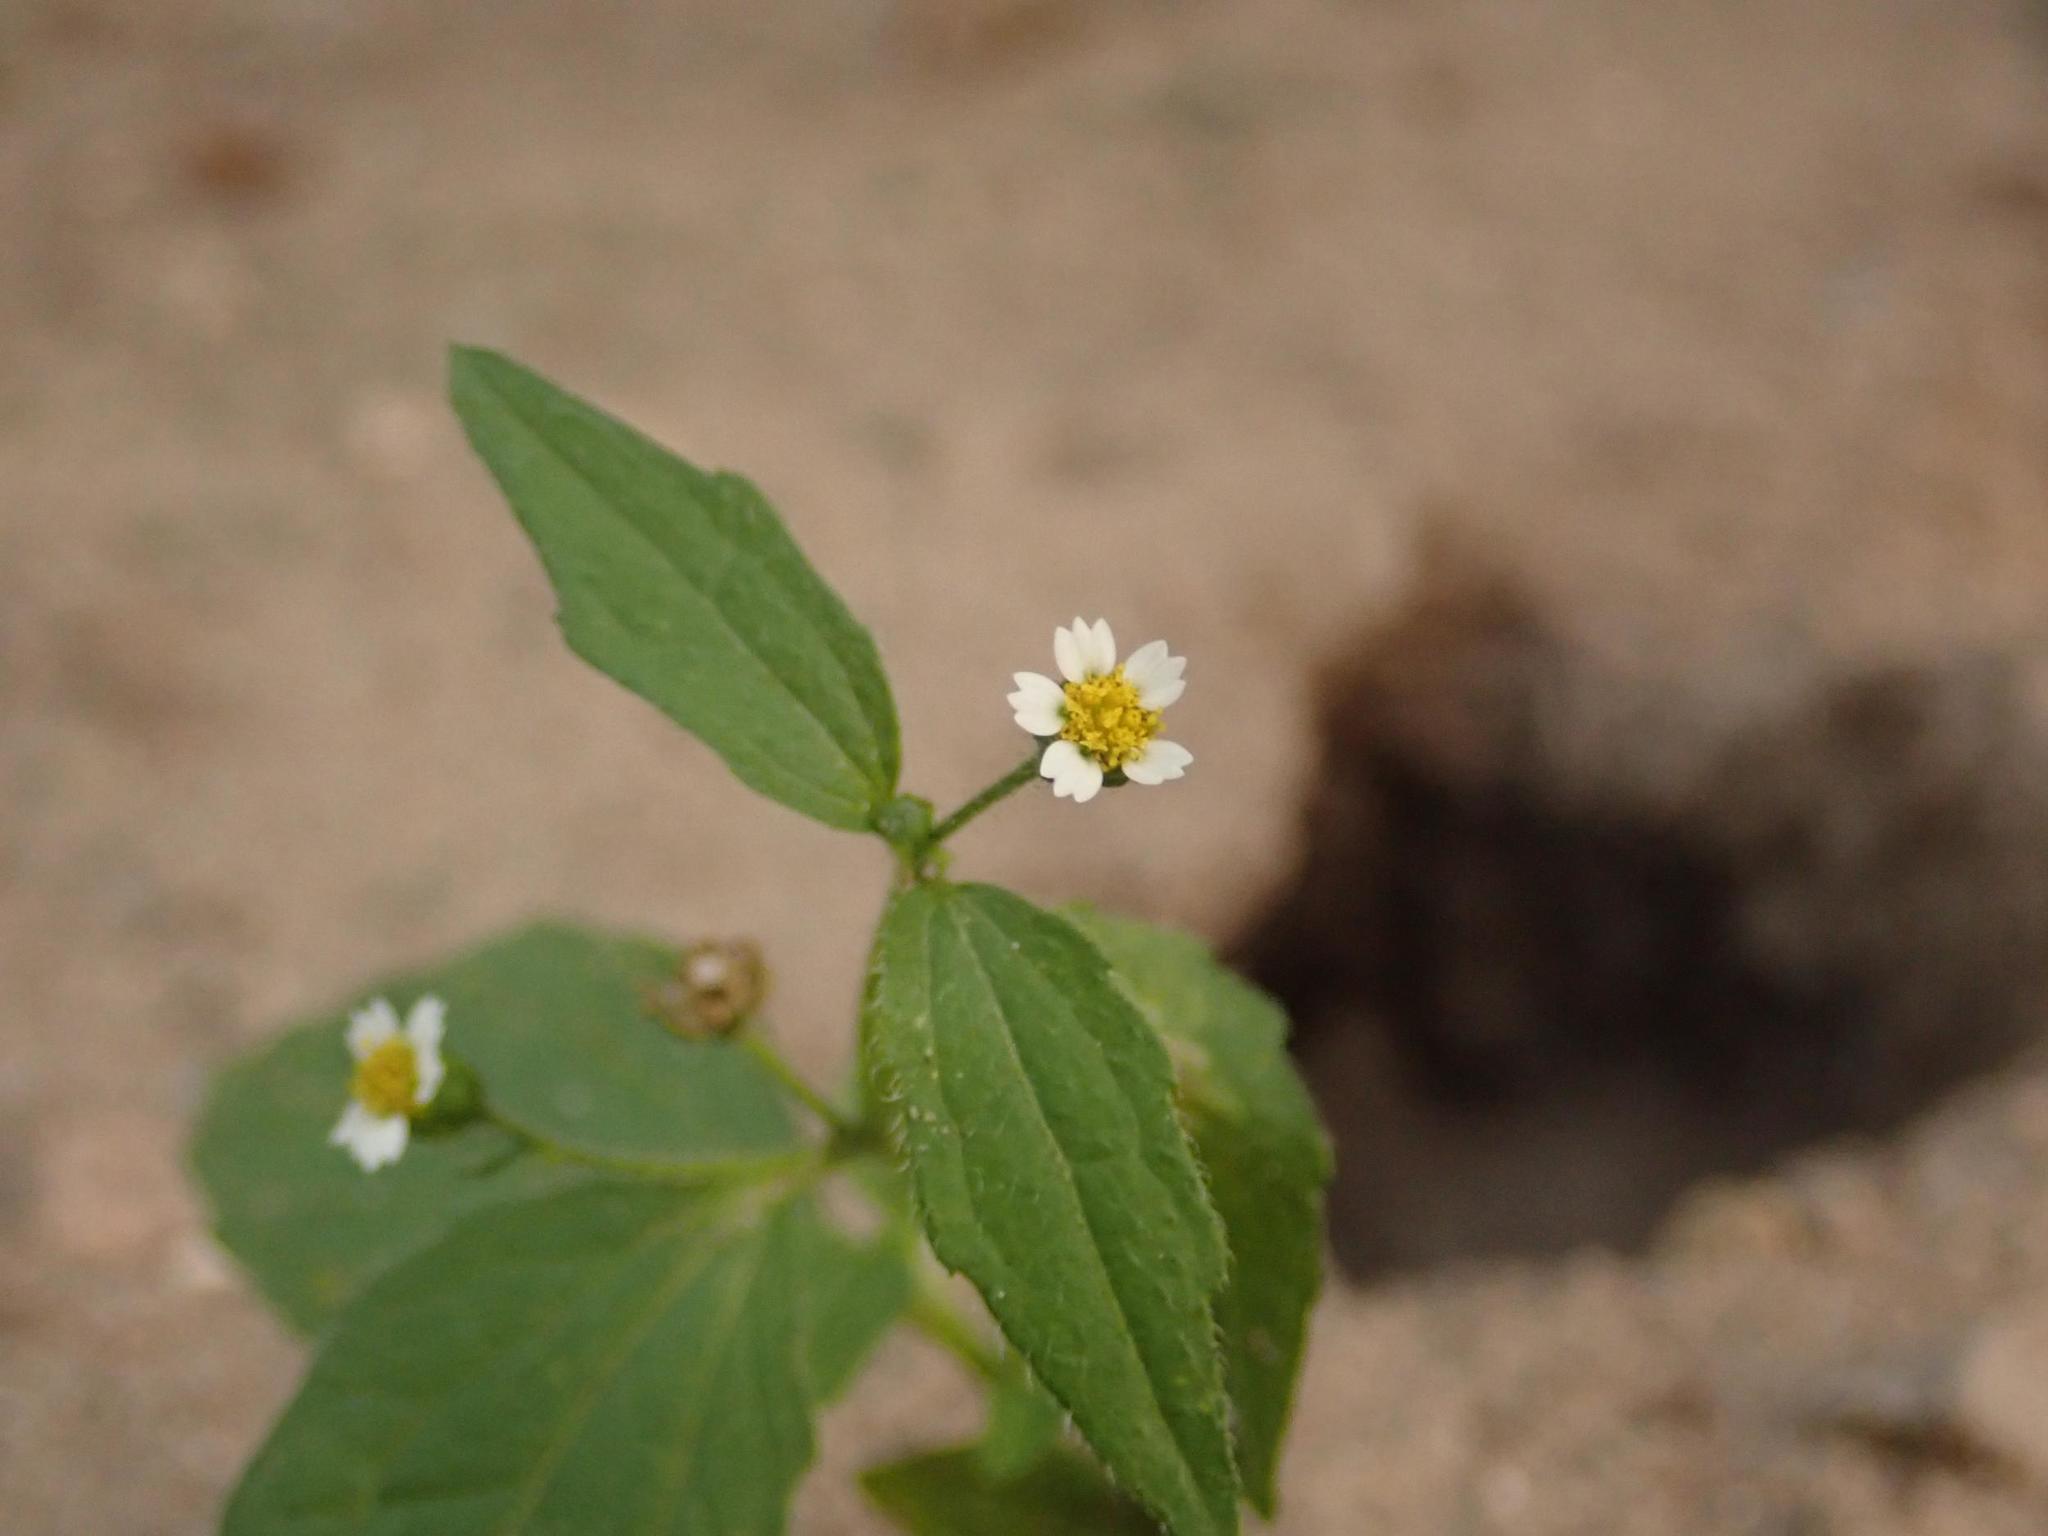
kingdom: Plantae
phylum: Tracheophyta
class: Magnoliopsida
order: Asterales
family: Asteraceae
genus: Galinsoga
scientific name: Galinsoga quadriradiata
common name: Shaggy soldier
